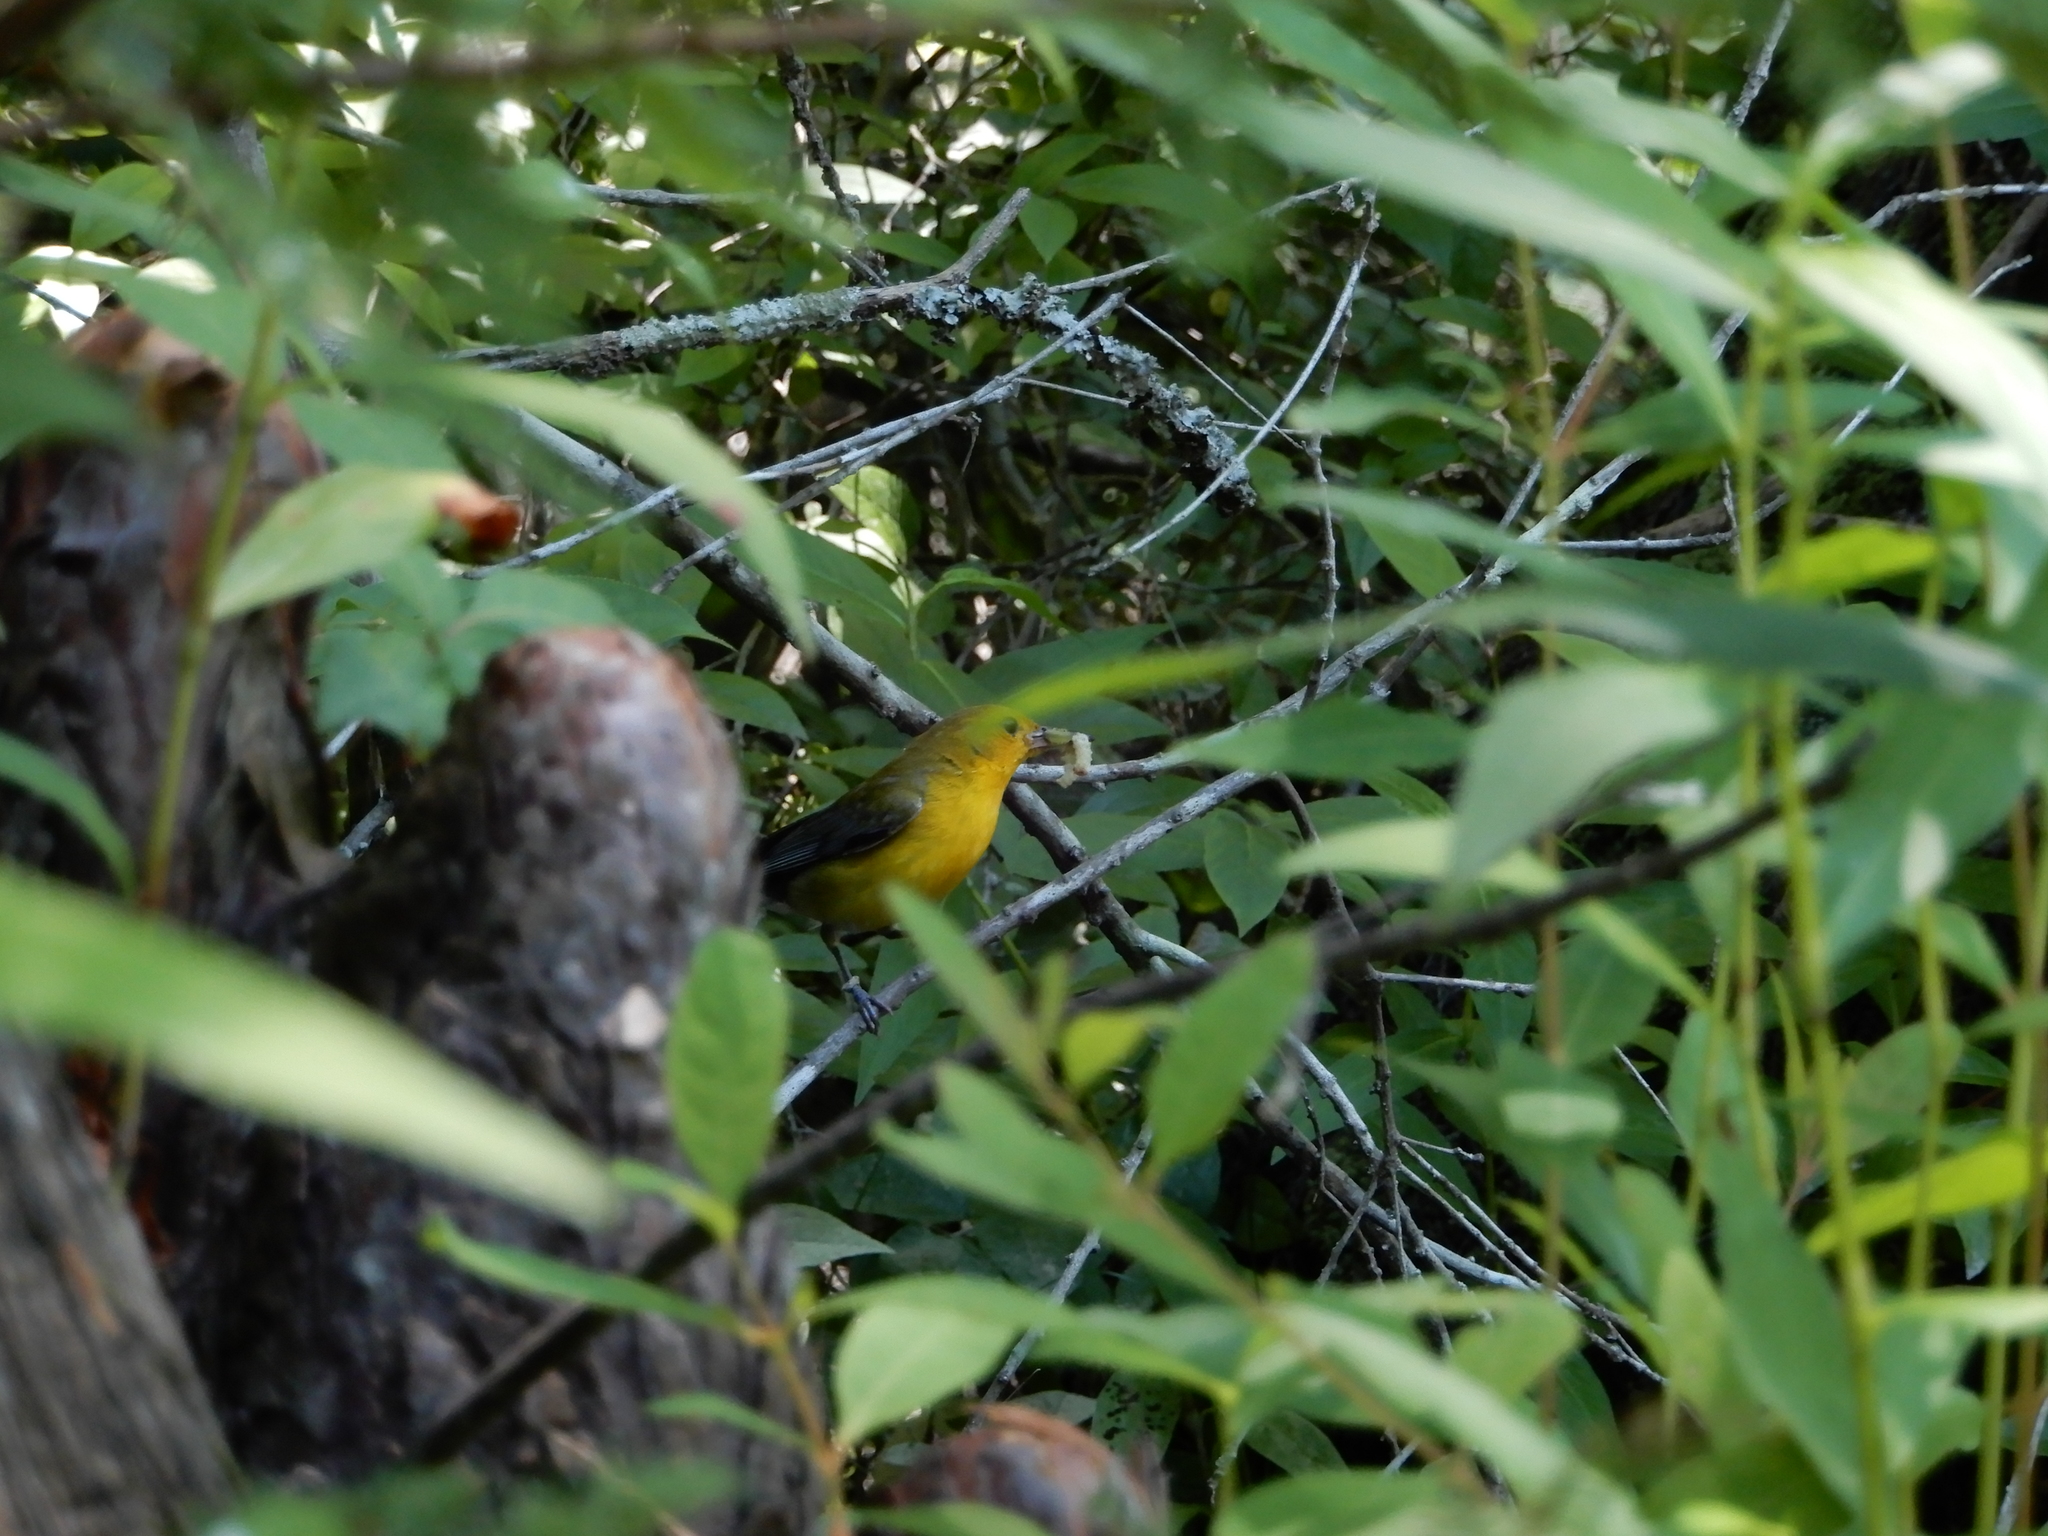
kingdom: Animalia
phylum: Chordata
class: Aves
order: Passeriformes
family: Parulidae
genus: Protonotaria
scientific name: Protonotaria citrea
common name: Prothonotary warbler
